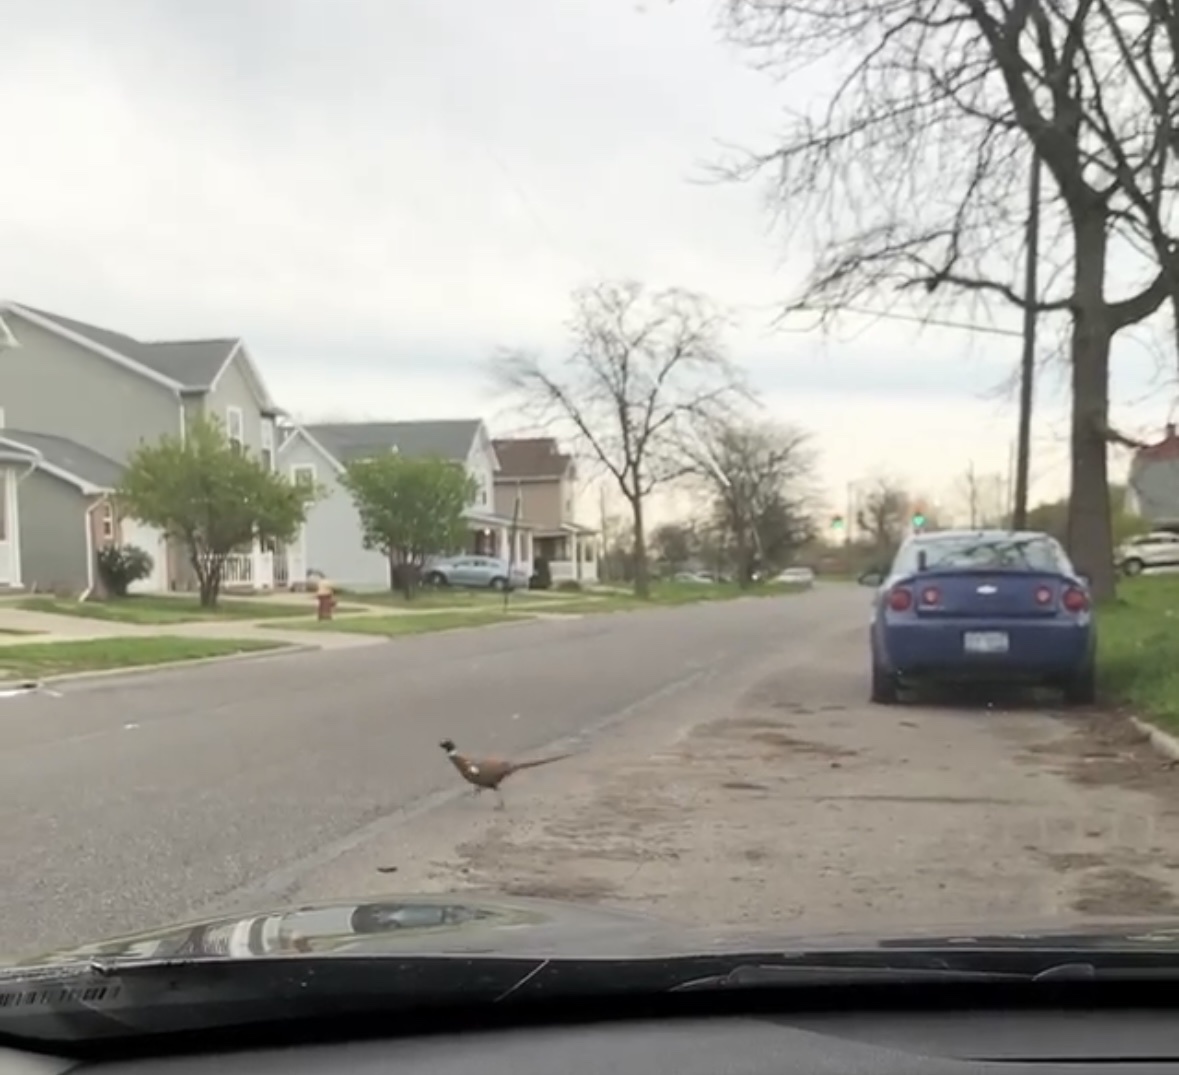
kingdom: Animalia
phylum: Chordata
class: Aves
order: Galliformes
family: Phasianidae
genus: Phasianus
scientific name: Phasianus colchicus
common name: Common pheasant
